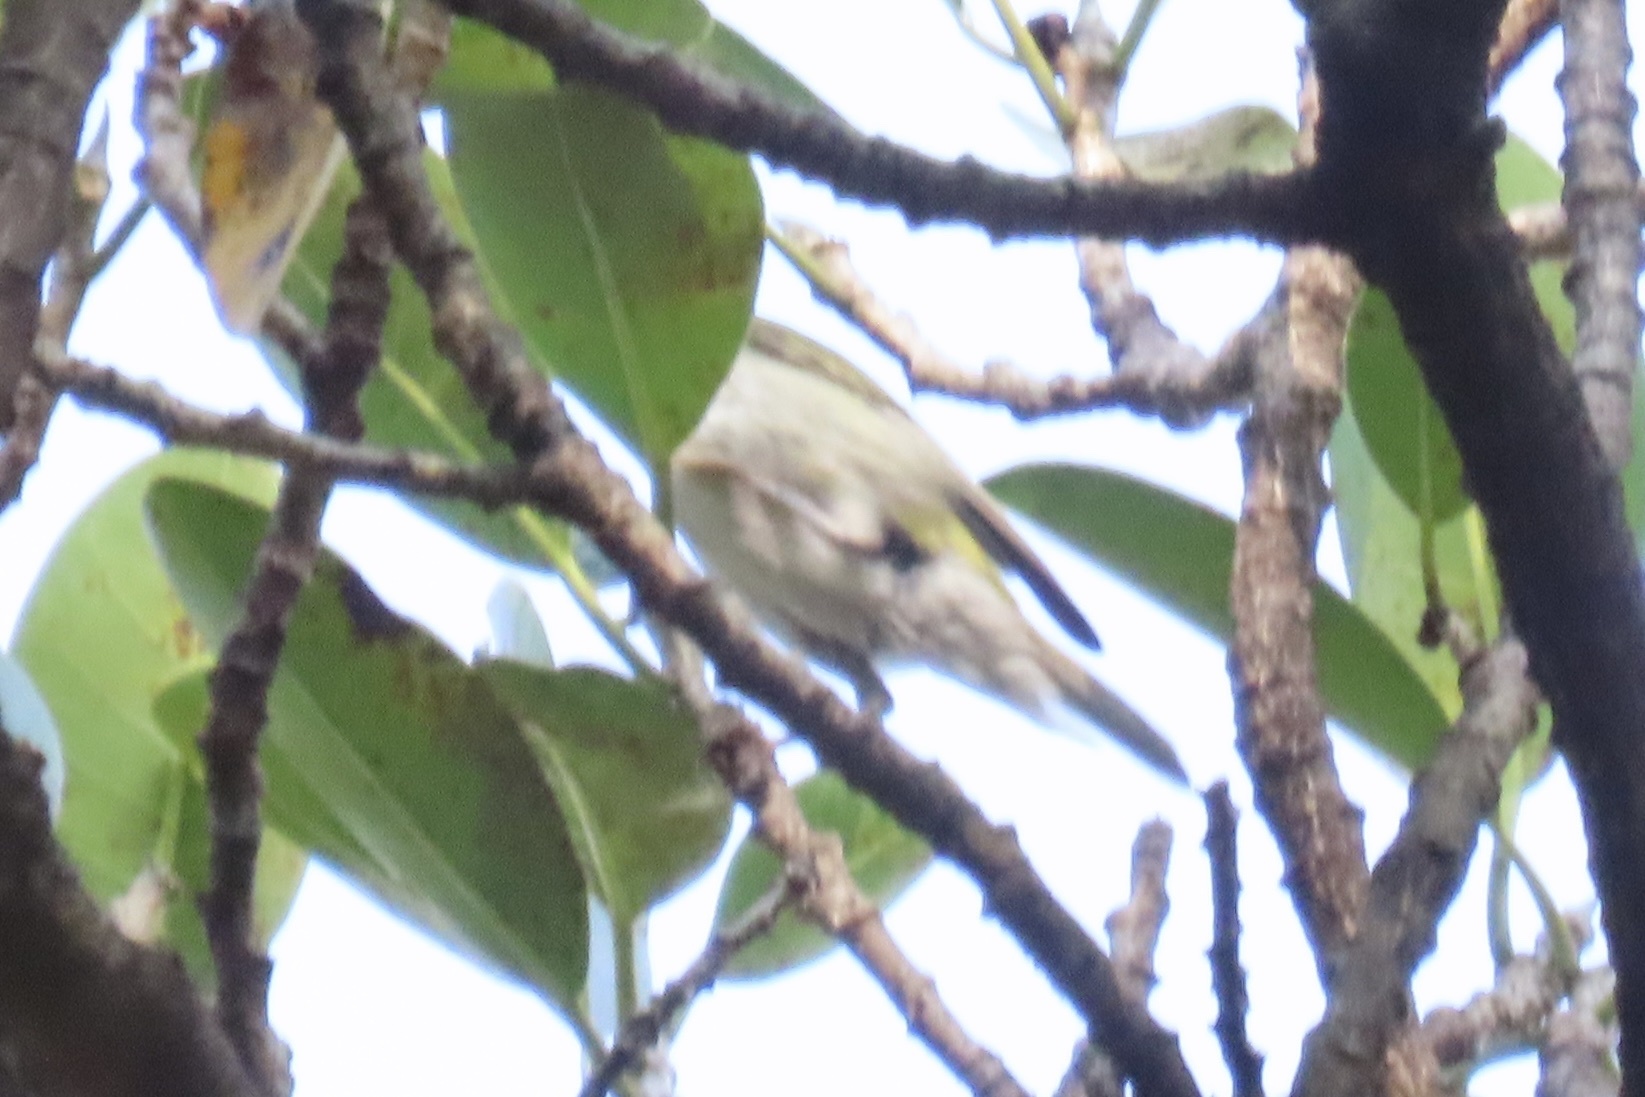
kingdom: Animalia
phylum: Chordata
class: Aves
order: Passeriformes
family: Parulidae
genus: Leiothlypis
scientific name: Leiothlypis peregrina
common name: Tennessee warbler
